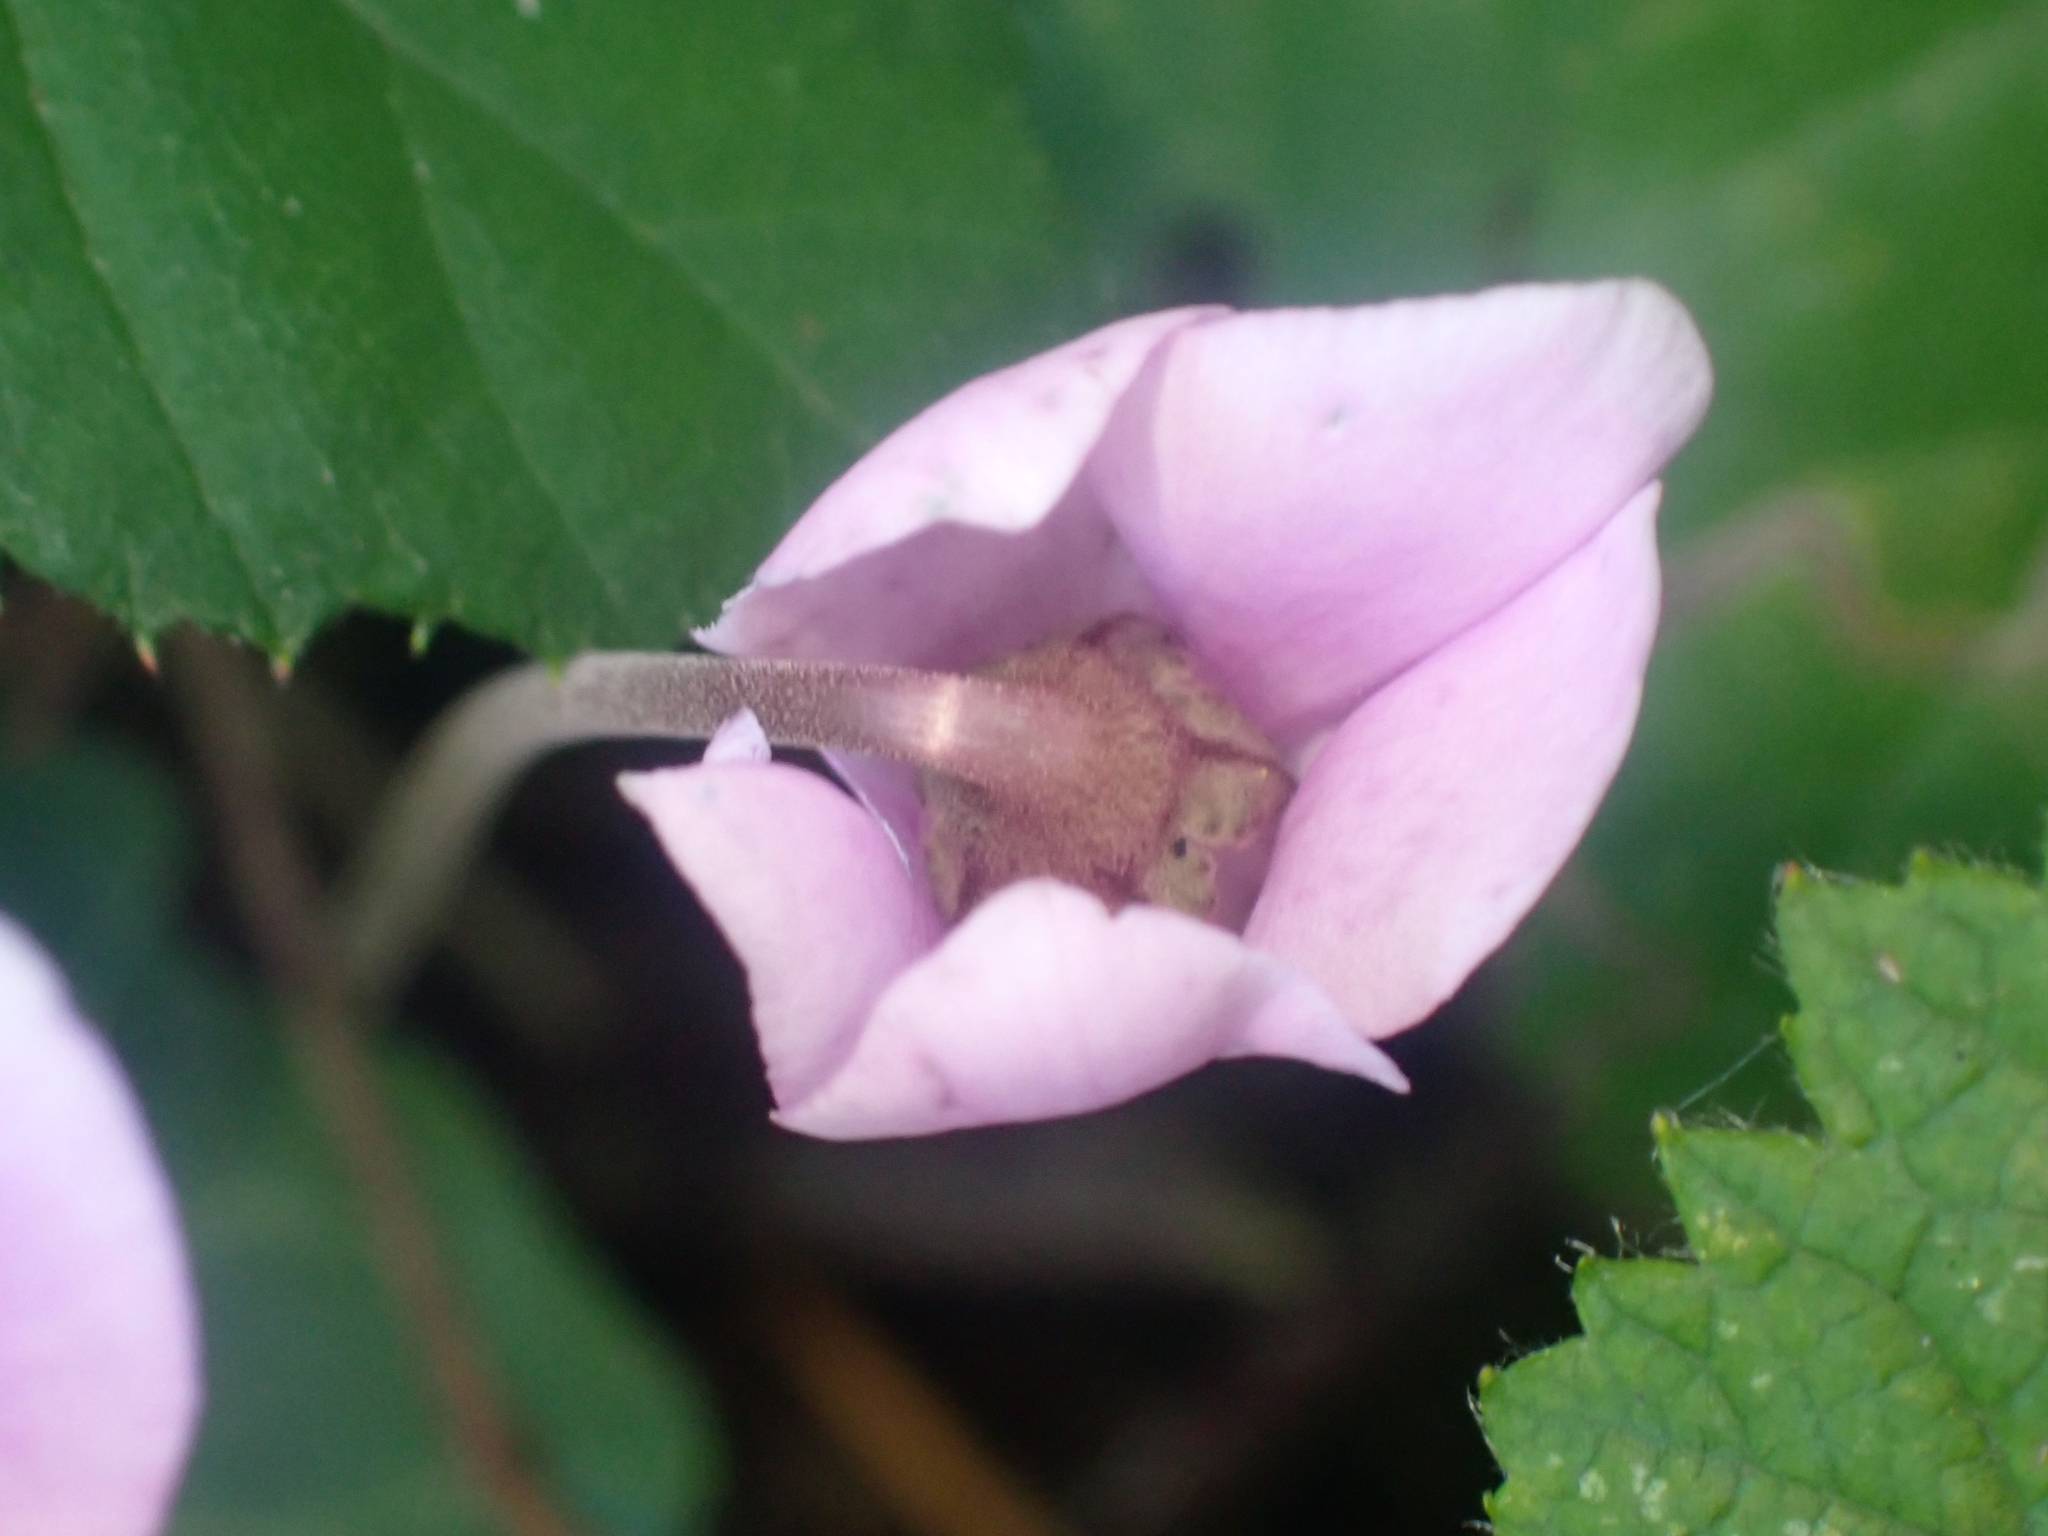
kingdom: Plantae
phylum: Tracheophyta
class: Magnoliopsida
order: Ericales
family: Primulaceae
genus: Cyclamen
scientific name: Cyclamen hederifolium
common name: Sowbread
